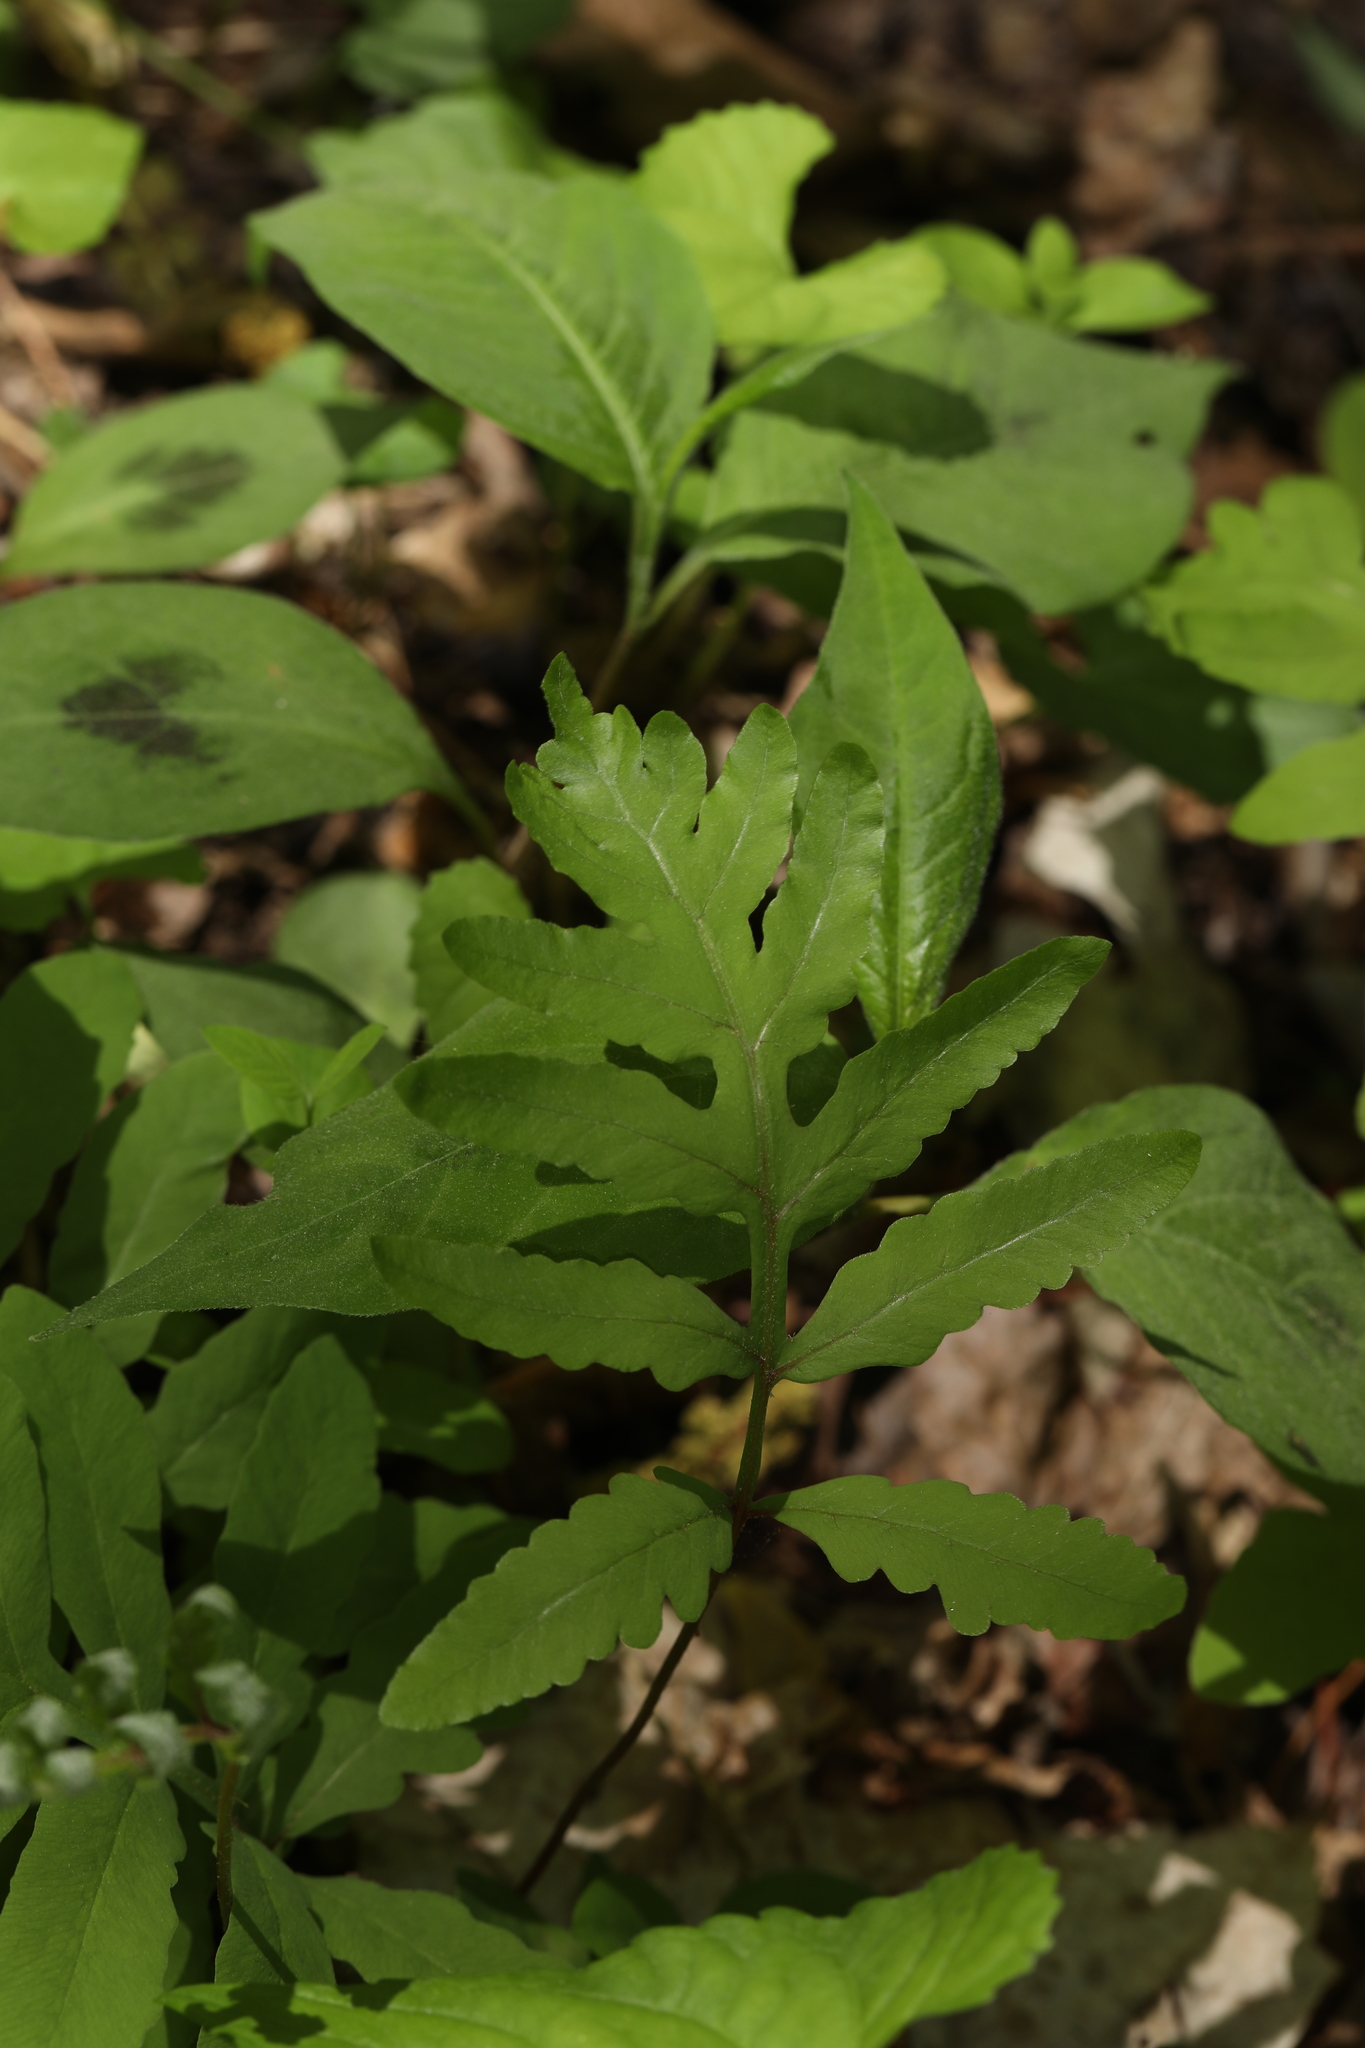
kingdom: Plantae
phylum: Tracheophyta
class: Polypodiopsida
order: Polypodiales
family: Onocleaceae
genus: Onoclea
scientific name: Onoclea sensibilis
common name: Sensitive fern
